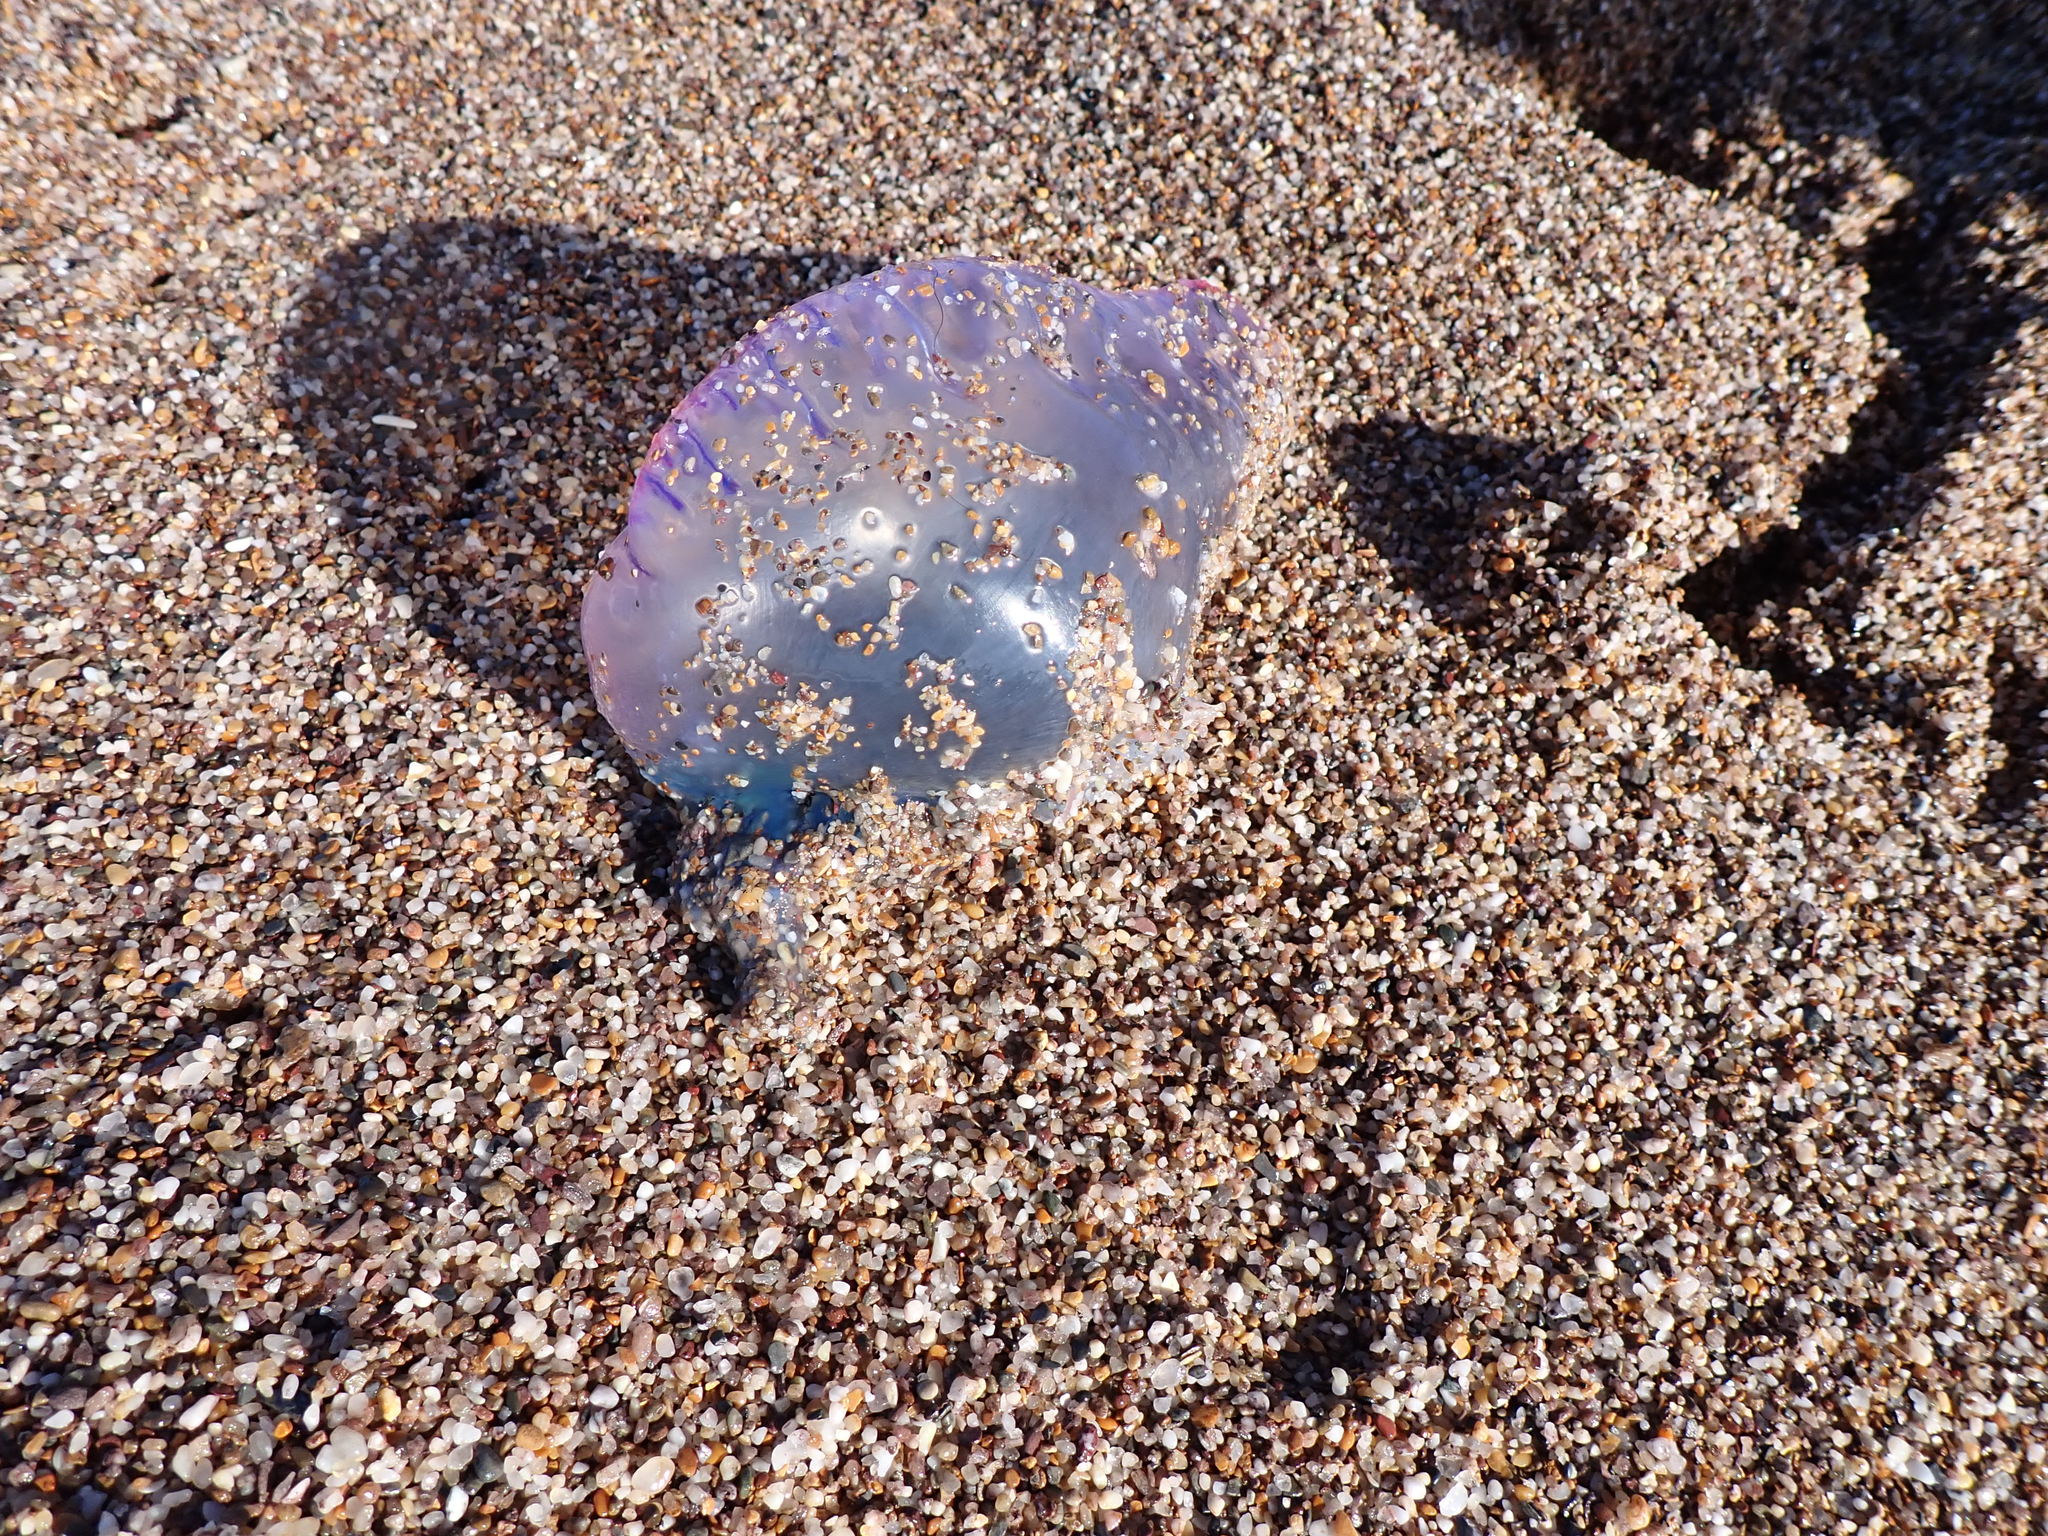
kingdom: Animalia
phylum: Cnidaria
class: Hydrozoa
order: Siphonophorae
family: Physaliidae
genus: Physalia
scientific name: Physalia physalis
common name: Portuguese man-of-war
